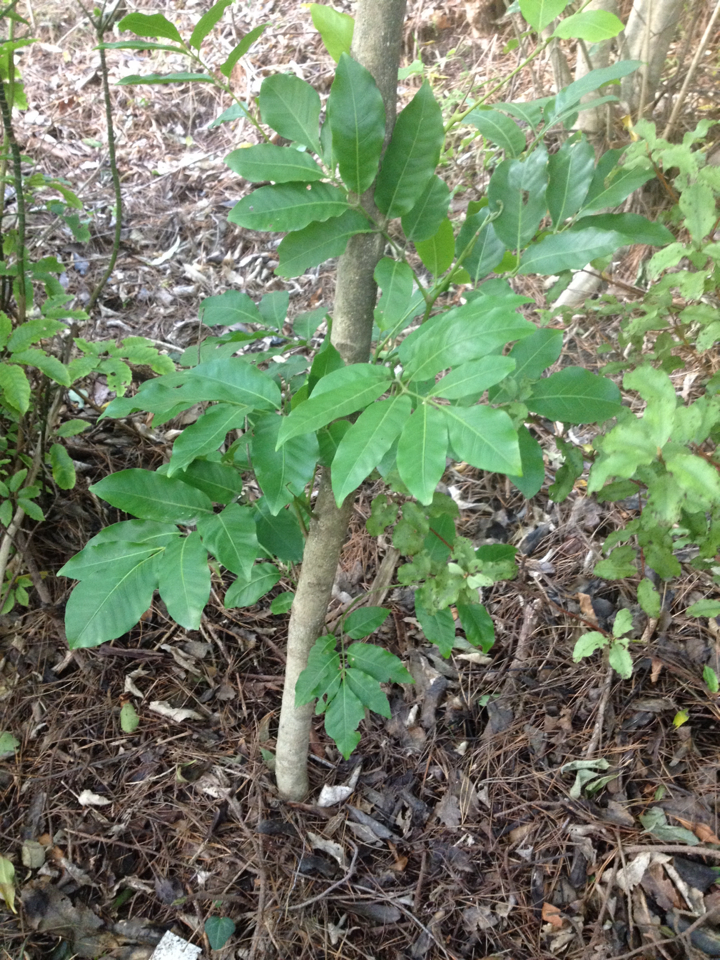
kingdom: Plantae
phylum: Tracheophyta
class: Magnoliopsida
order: Sapindales
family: Meliaceae
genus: Didymocheton
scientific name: Didymocheton spectabilis
